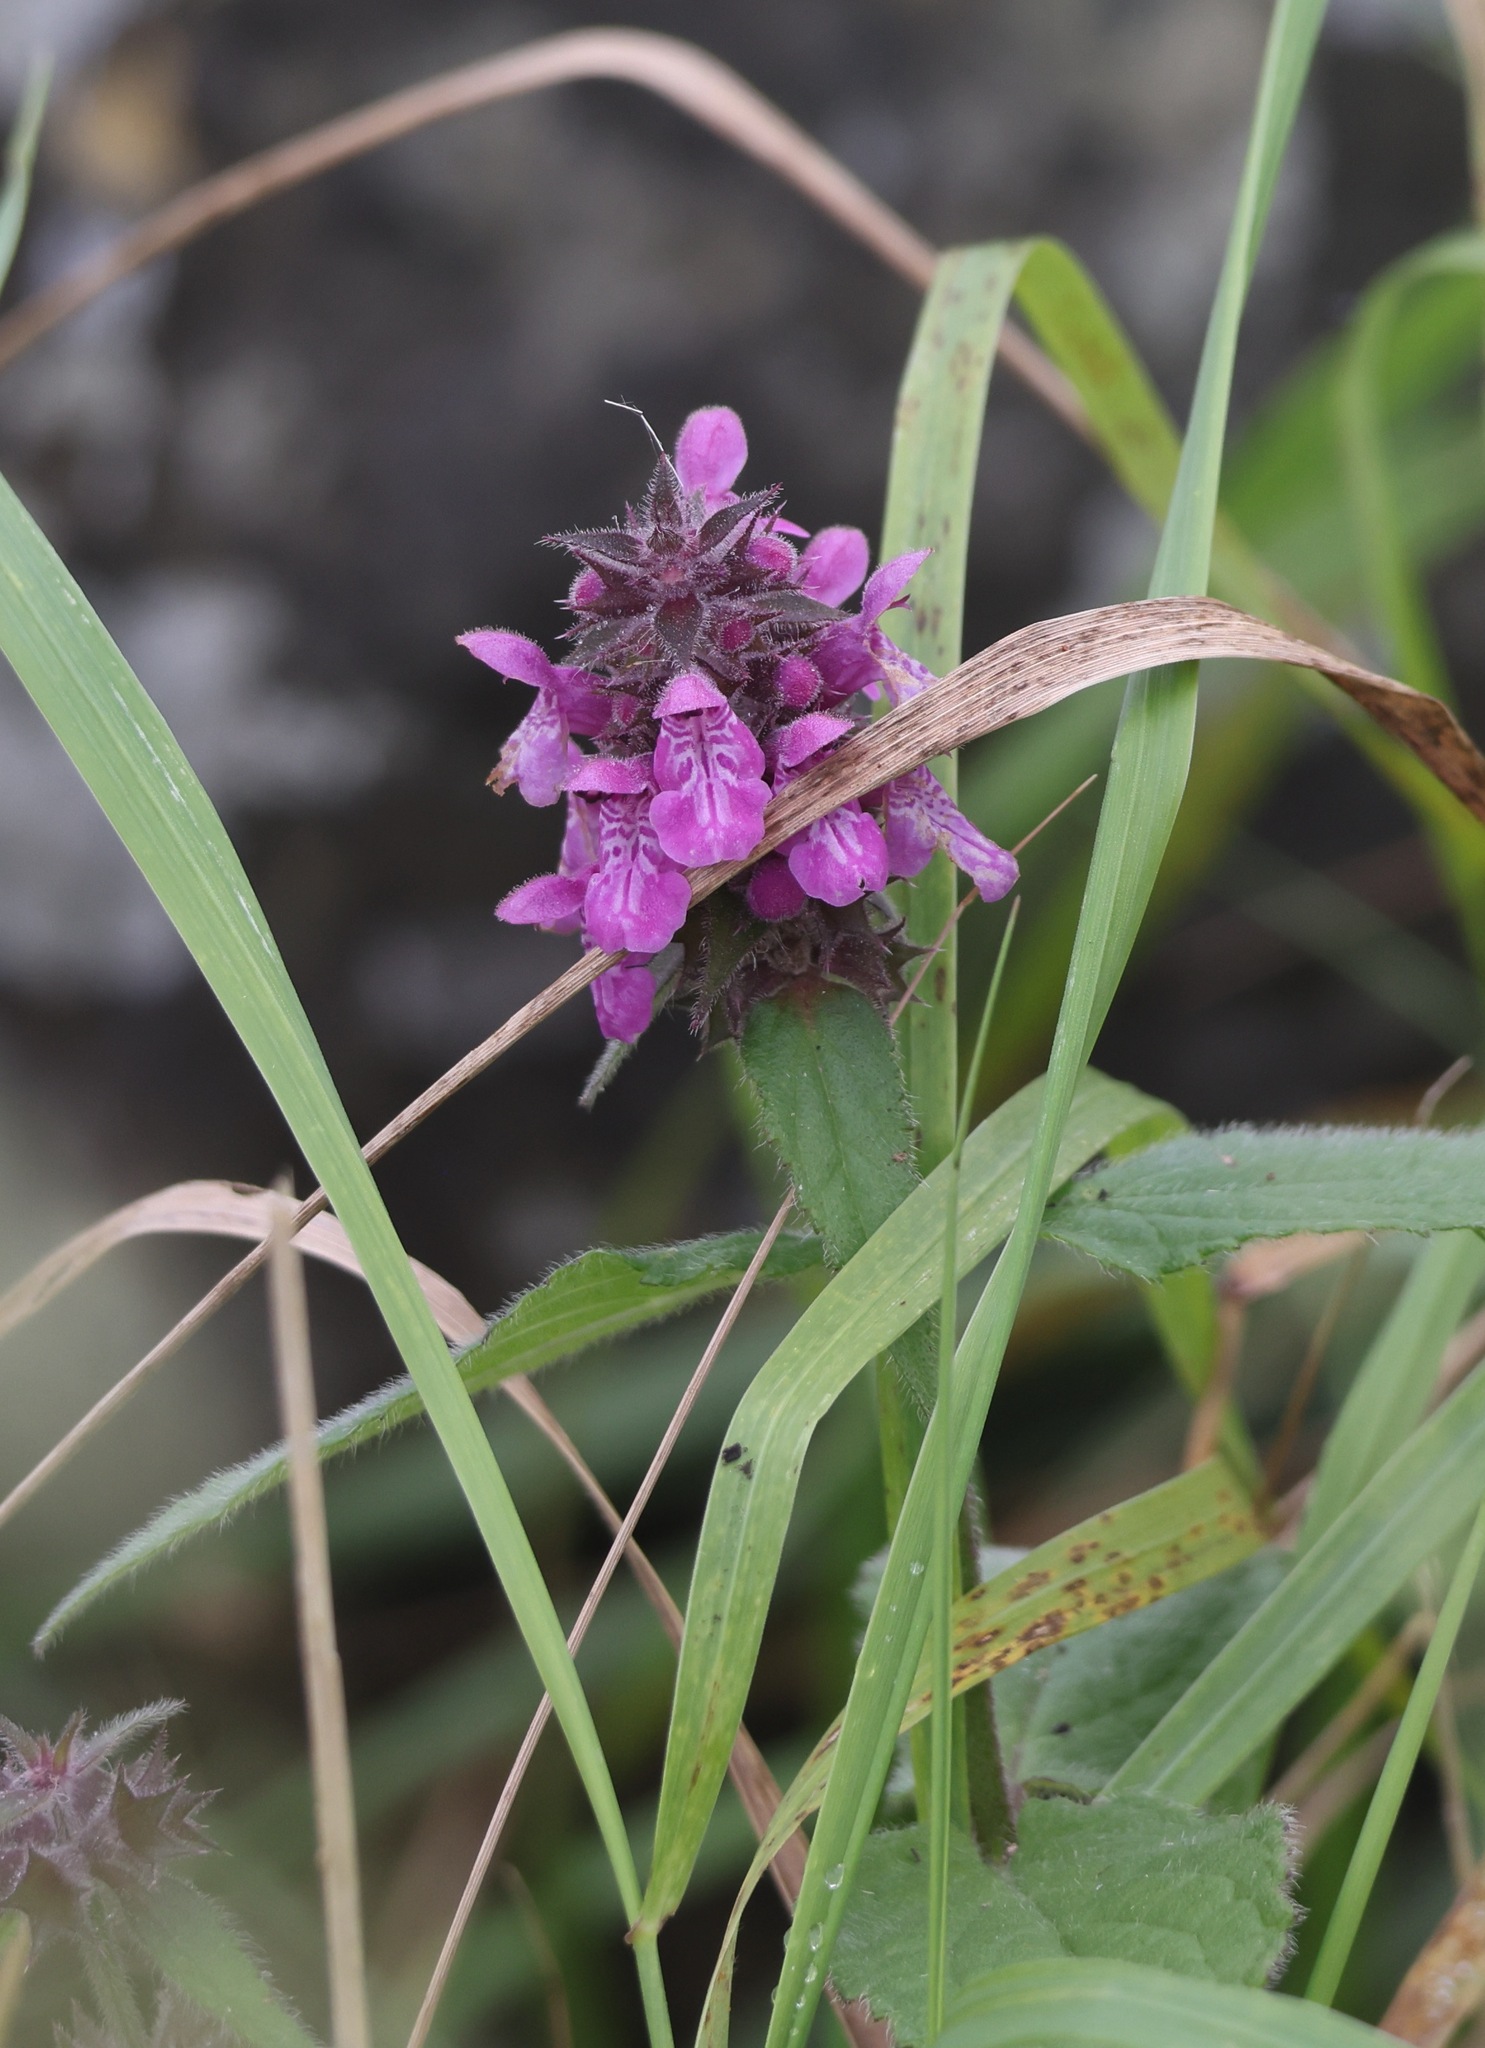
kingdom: Plantae
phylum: Tracheophyta
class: Magnoliopsida
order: Lamiales
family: Lamiaceae
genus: Stachys
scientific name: Stachys palustris
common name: Marsh woundwort
